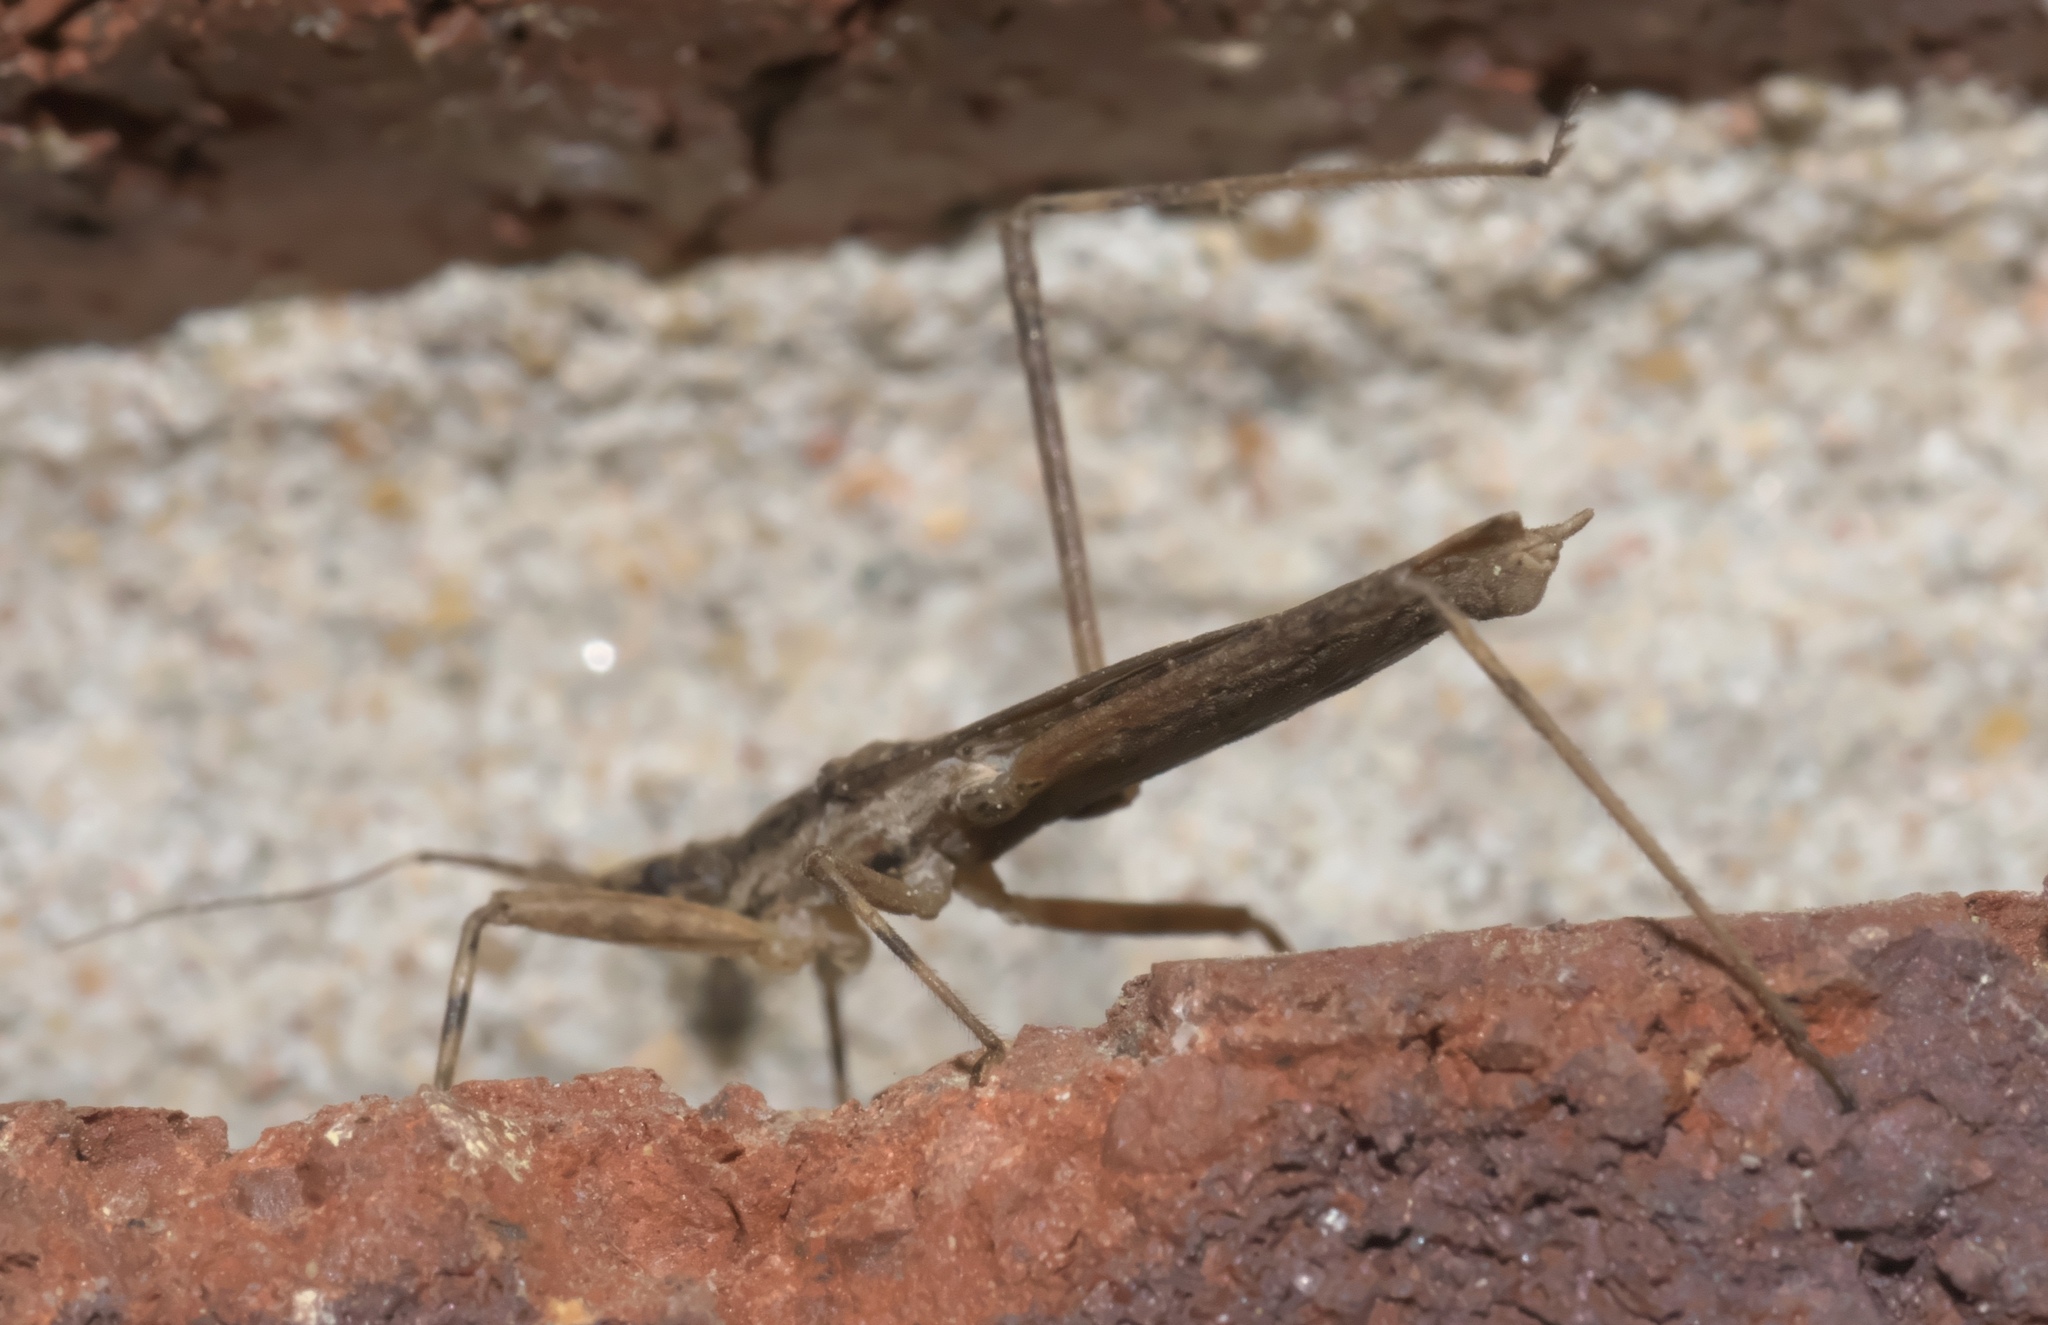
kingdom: Animalia
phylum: Arthropoda
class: Insecta
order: Hemiptera
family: Reduviidae
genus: Pygolampis
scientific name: Pygolampis pectoralis
